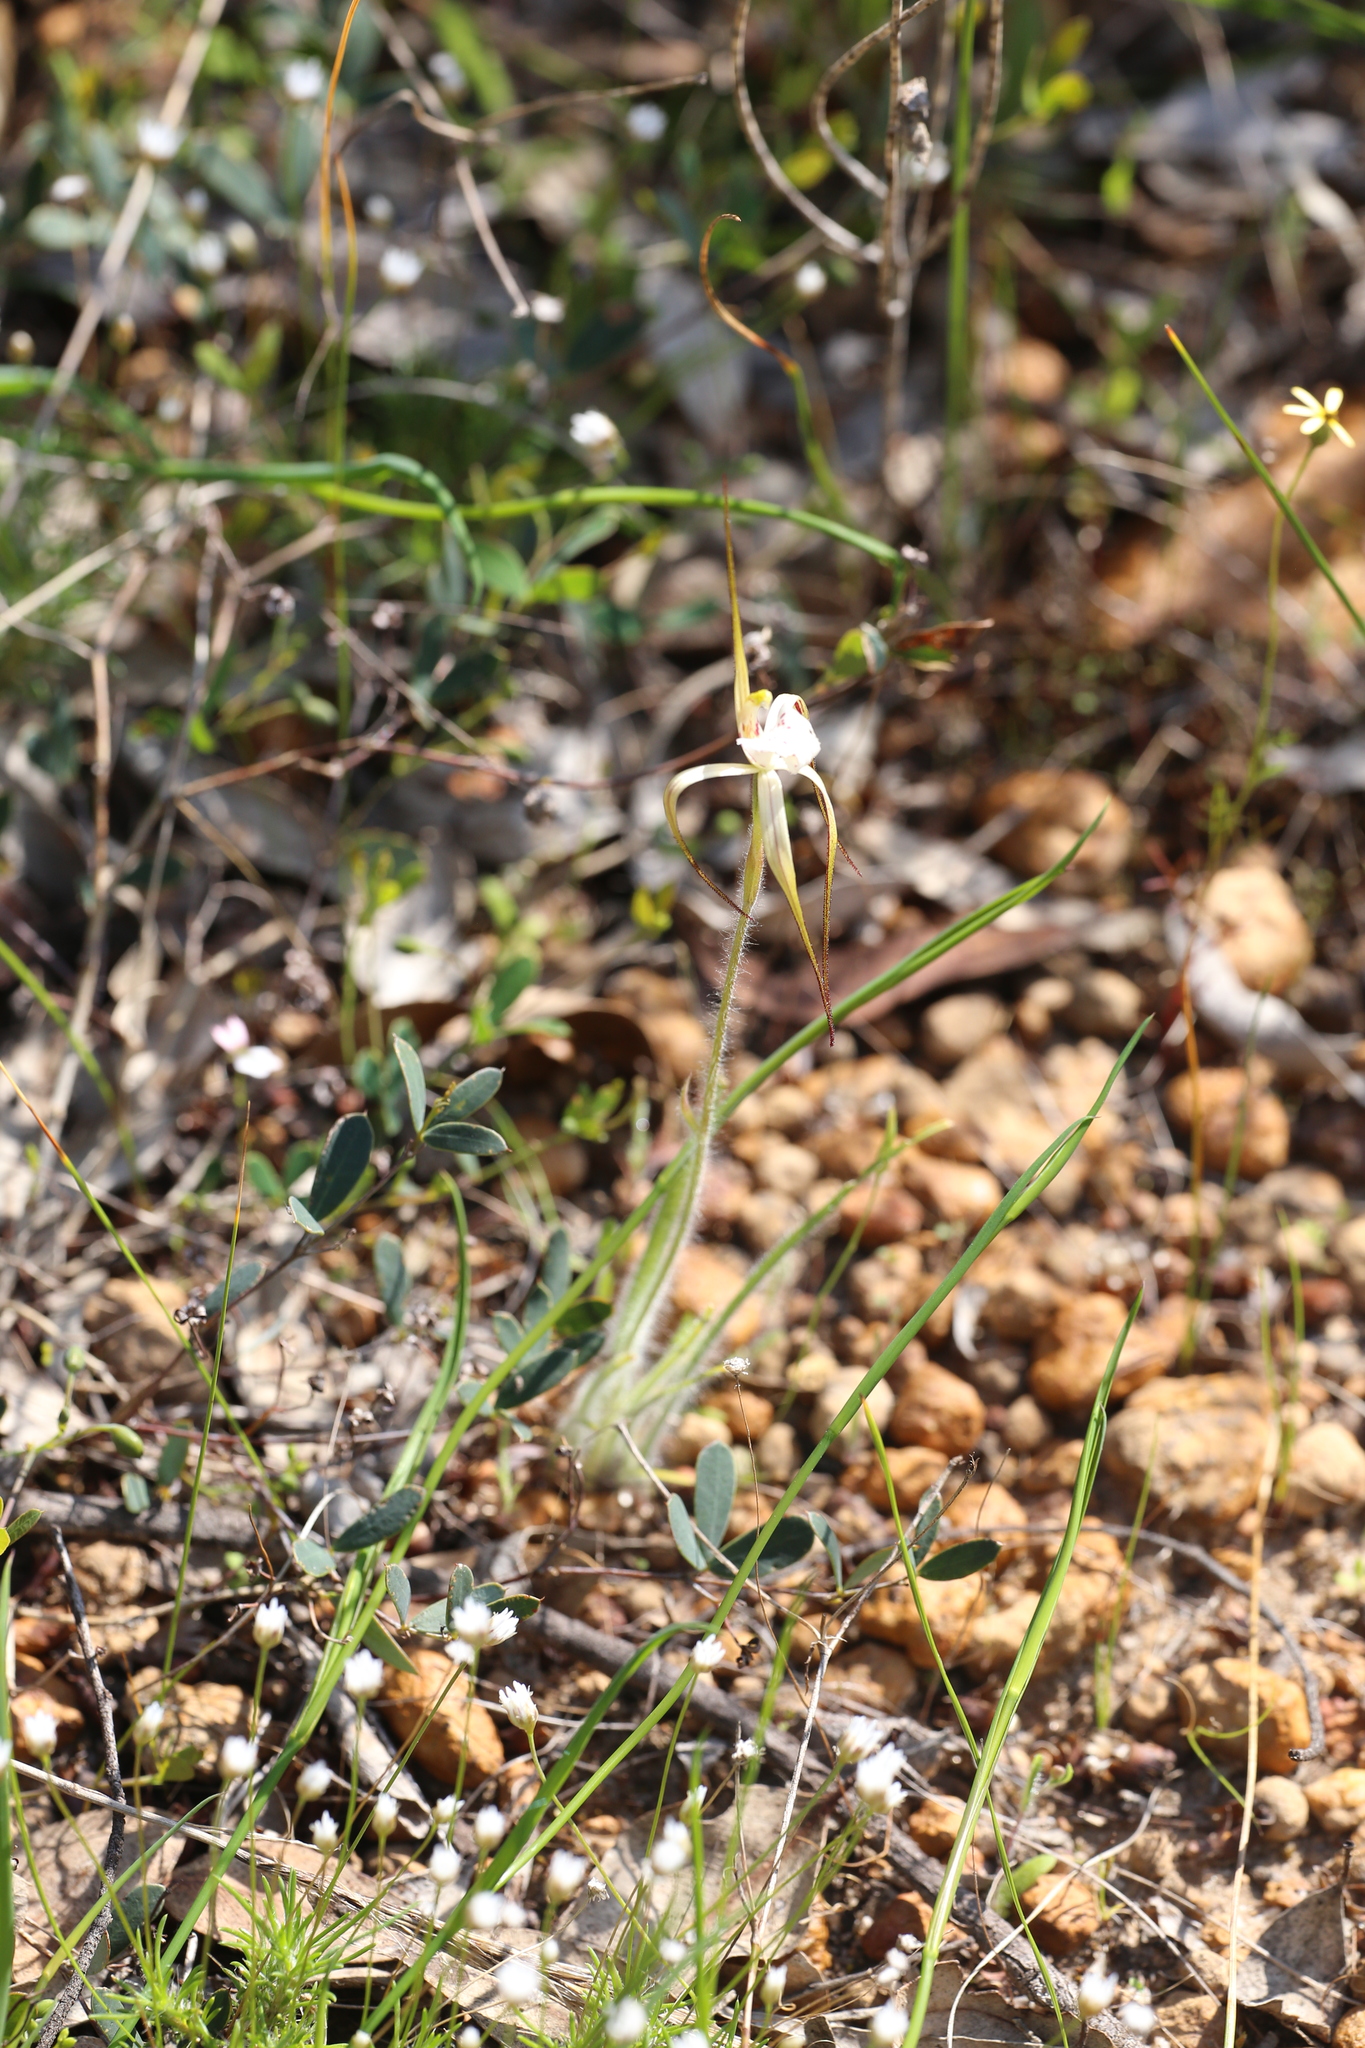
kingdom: Plantae
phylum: Tracheophyta
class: Liliopsida
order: Asparagales
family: Orchidaceae
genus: Caladenia
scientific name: Caladenia dorrienii
